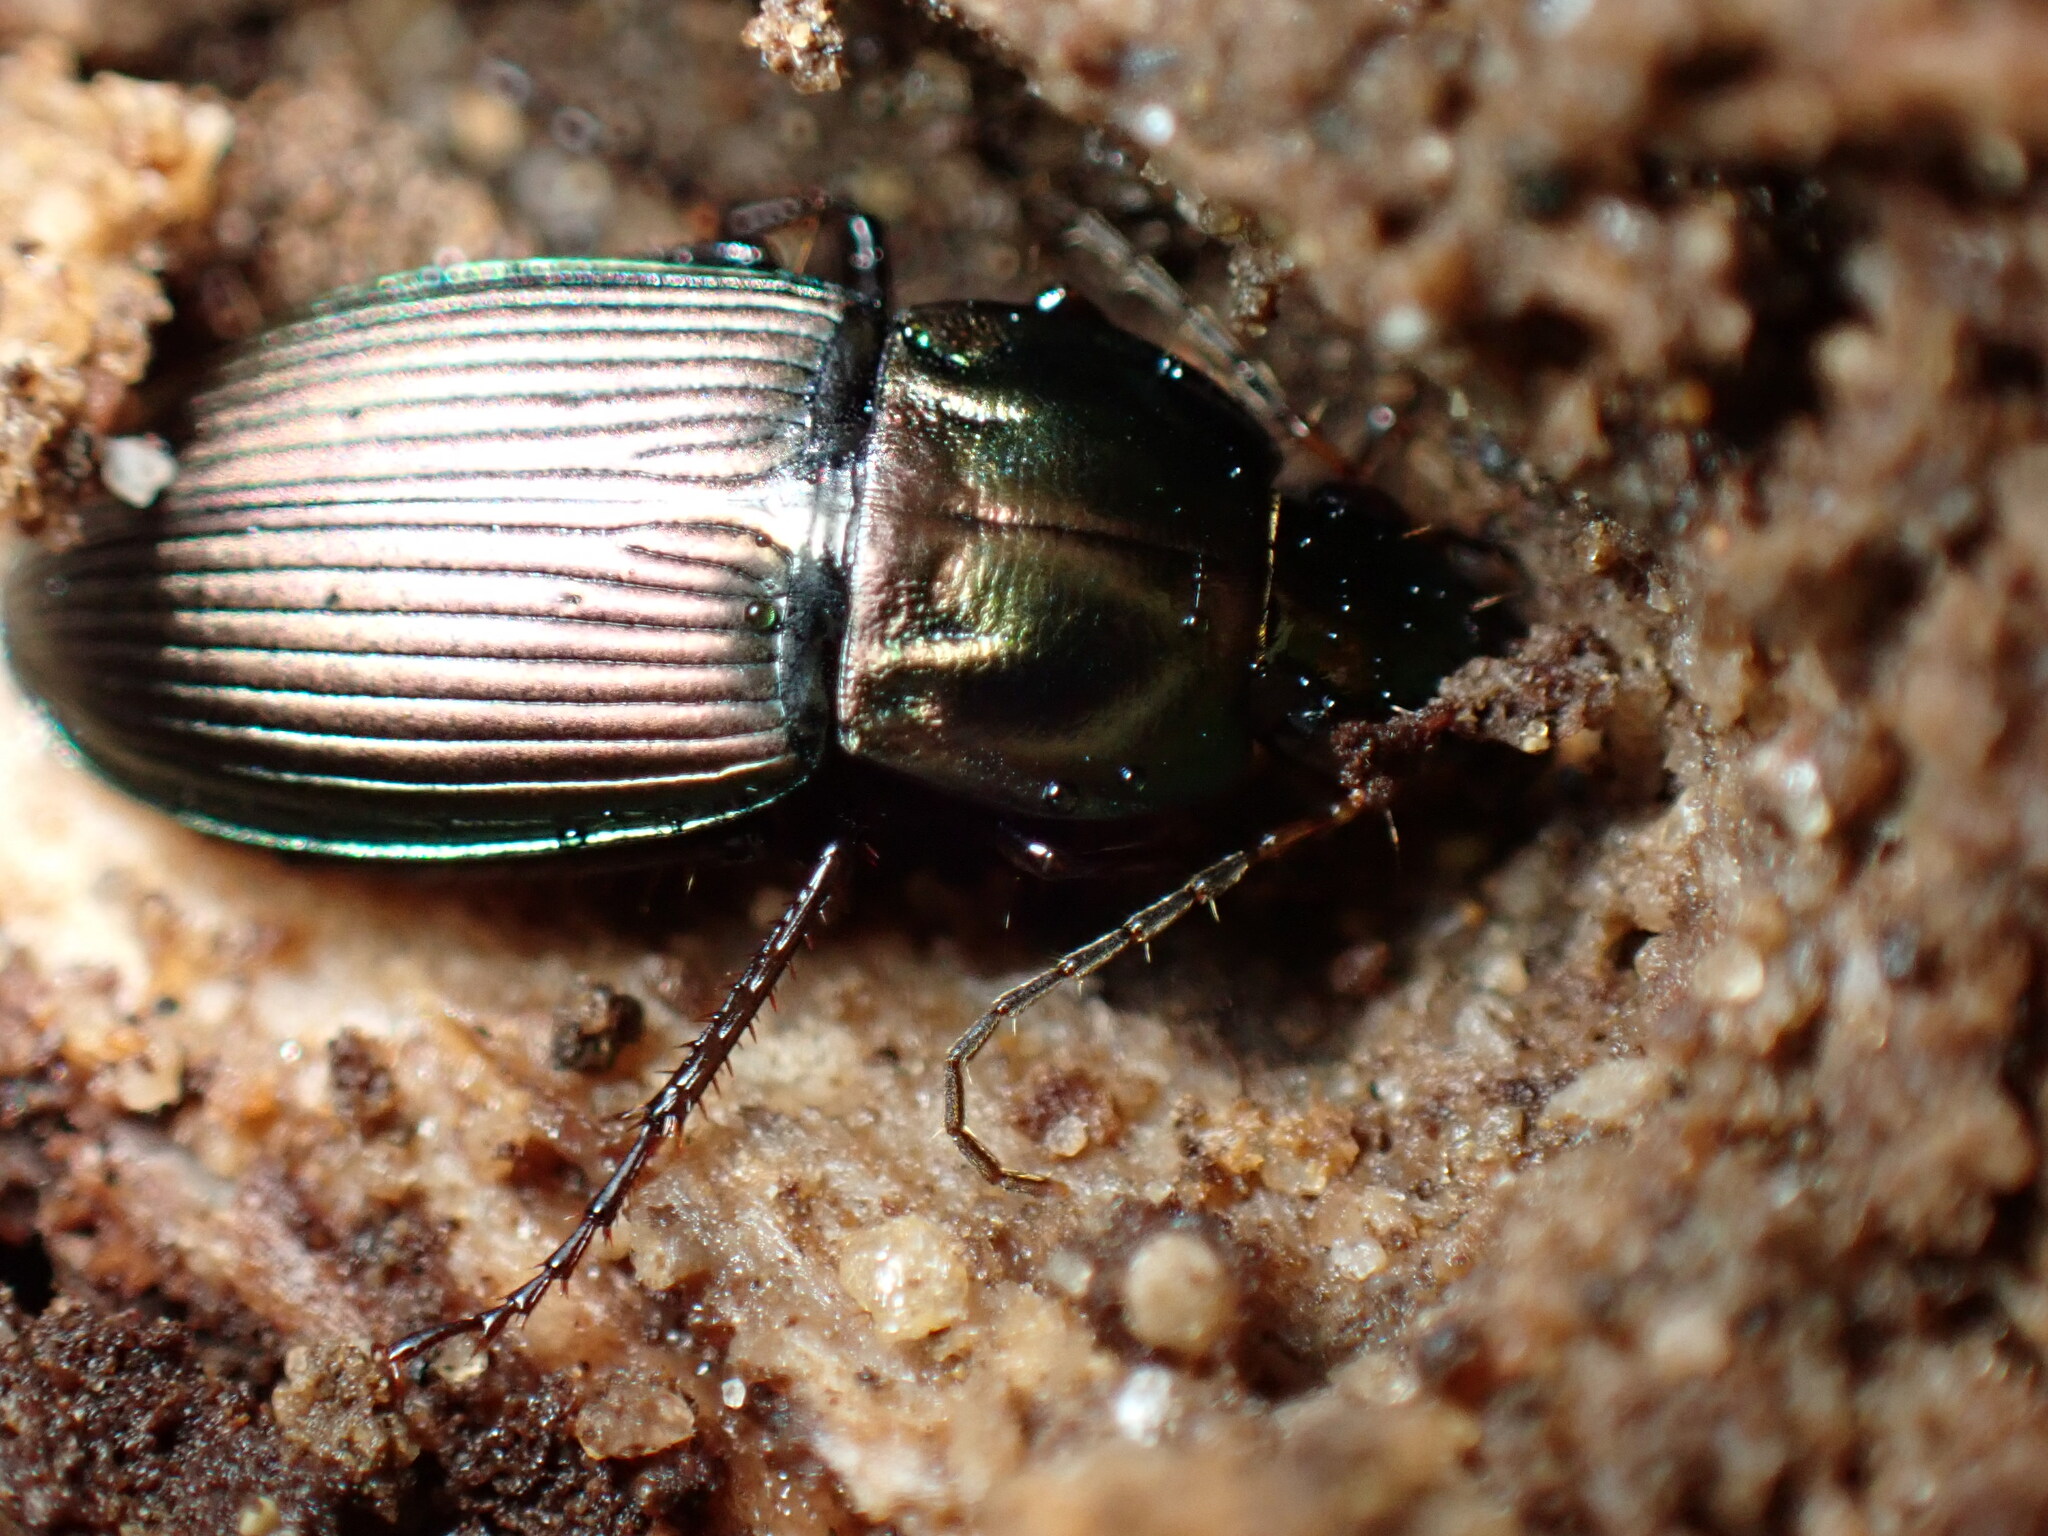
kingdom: Animalia
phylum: Arthropoda
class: Insecta
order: Coleoptera
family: Carabidae
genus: Poecilus
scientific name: Poecilus lucublandus
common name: Woodland ground beetle
